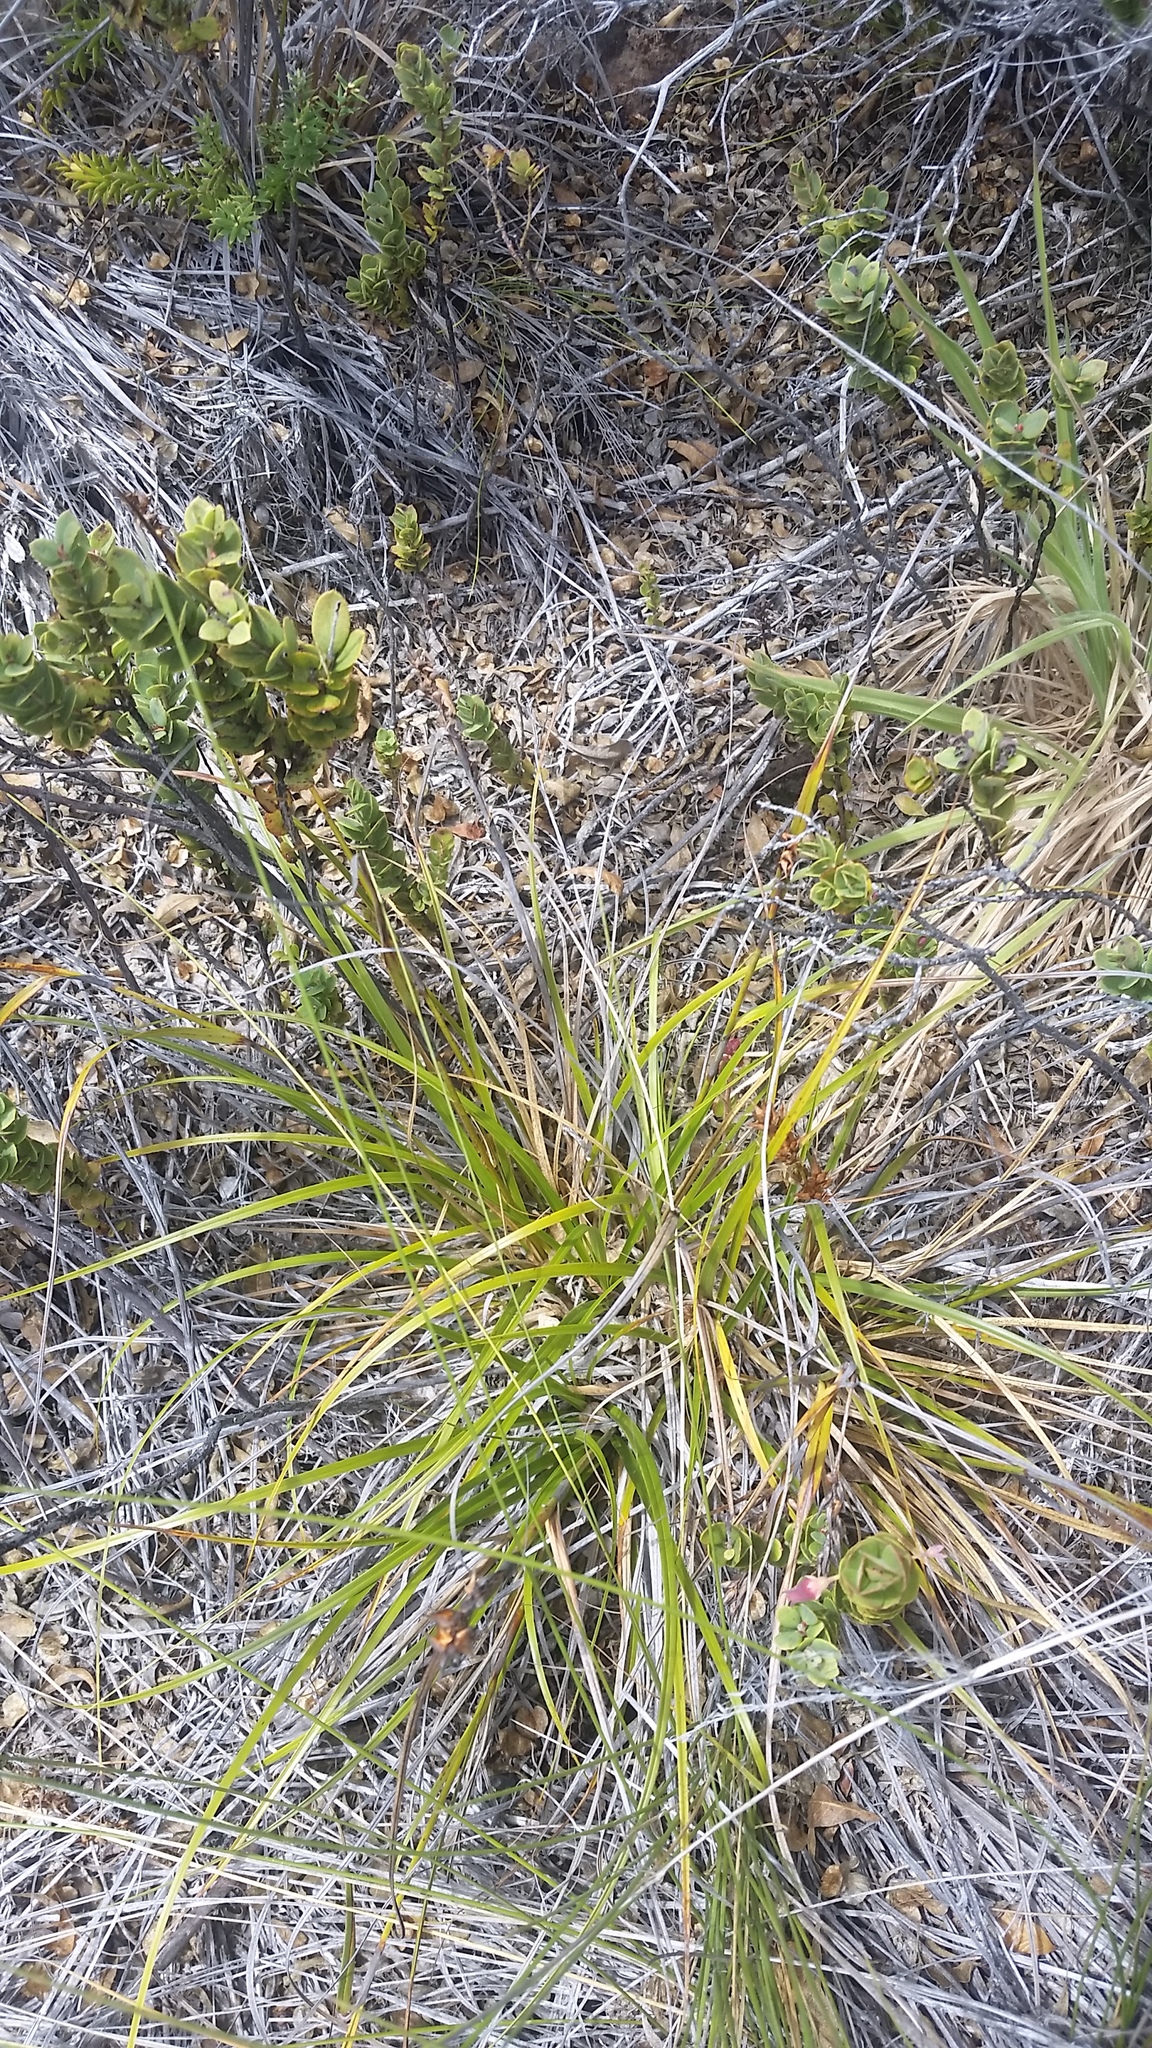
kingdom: Plantae
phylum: Tracheophyta
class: Liliopsida
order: Poales
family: Cyperaceae
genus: Morelotia
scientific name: Morelotia gahniiformis
